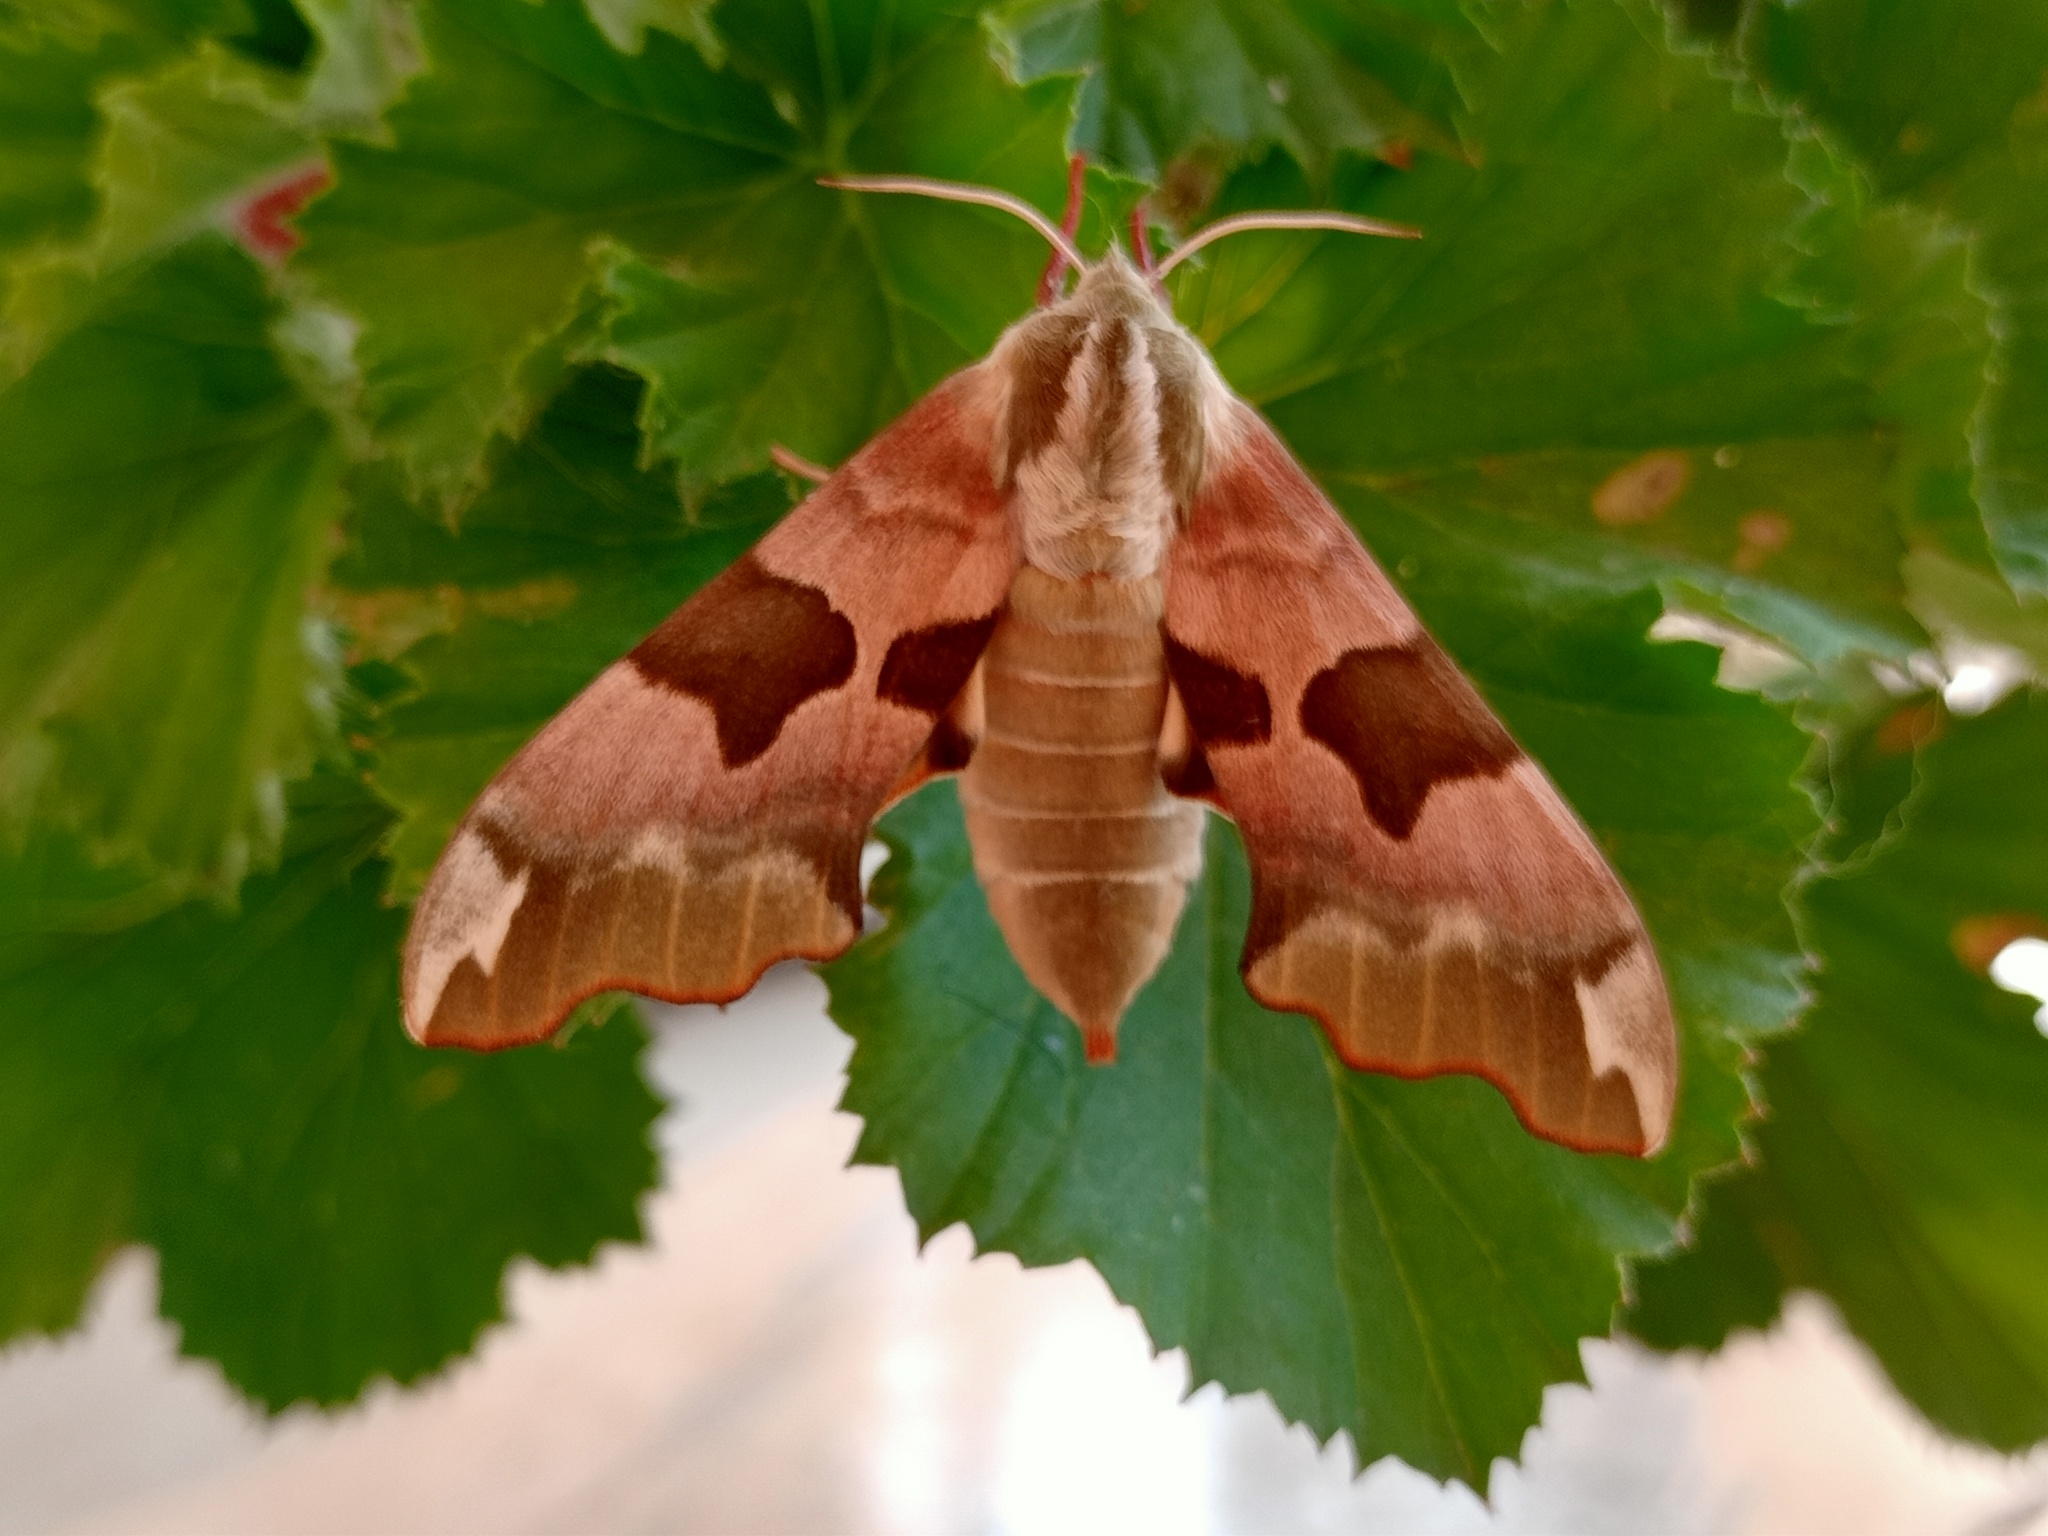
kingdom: Animalia
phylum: Arthropoda
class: Insecta
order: Lepidoptera
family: Sphingidae
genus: Mimas
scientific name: Mimas tiliae
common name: Lime hawk-moth
